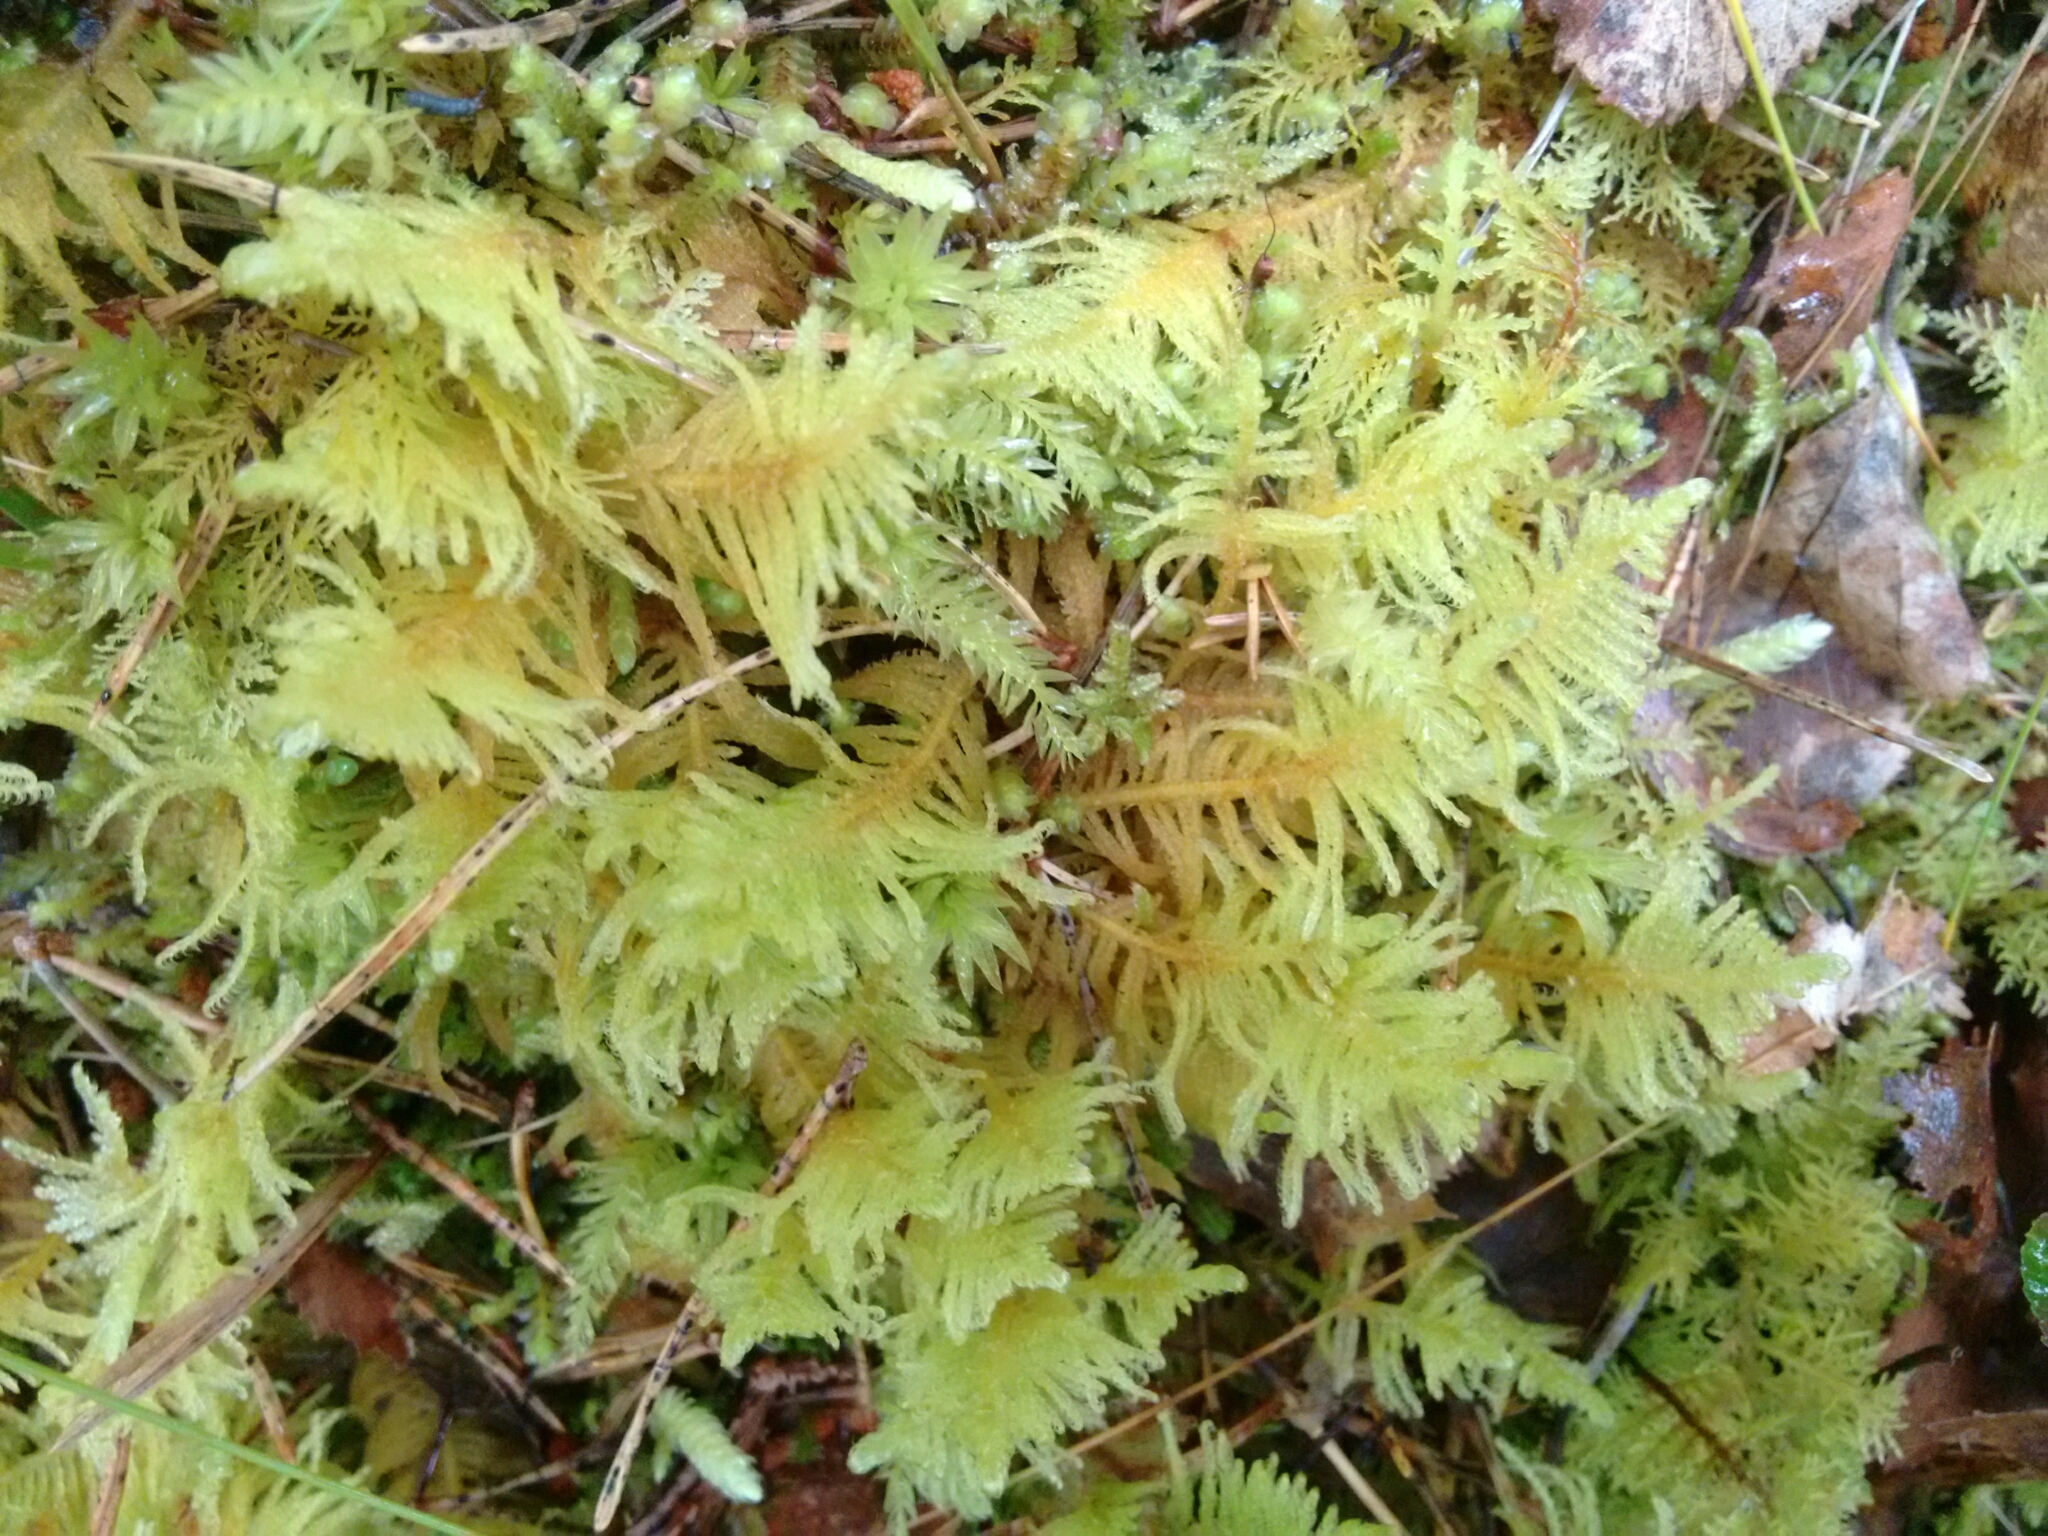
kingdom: Plantae
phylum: Bryophyta
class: Bryopsida
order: Hypnales
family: Pylaisiaceae
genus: Ptilium
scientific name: Ptilium crista-castrensis
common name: Knight's plume moss
